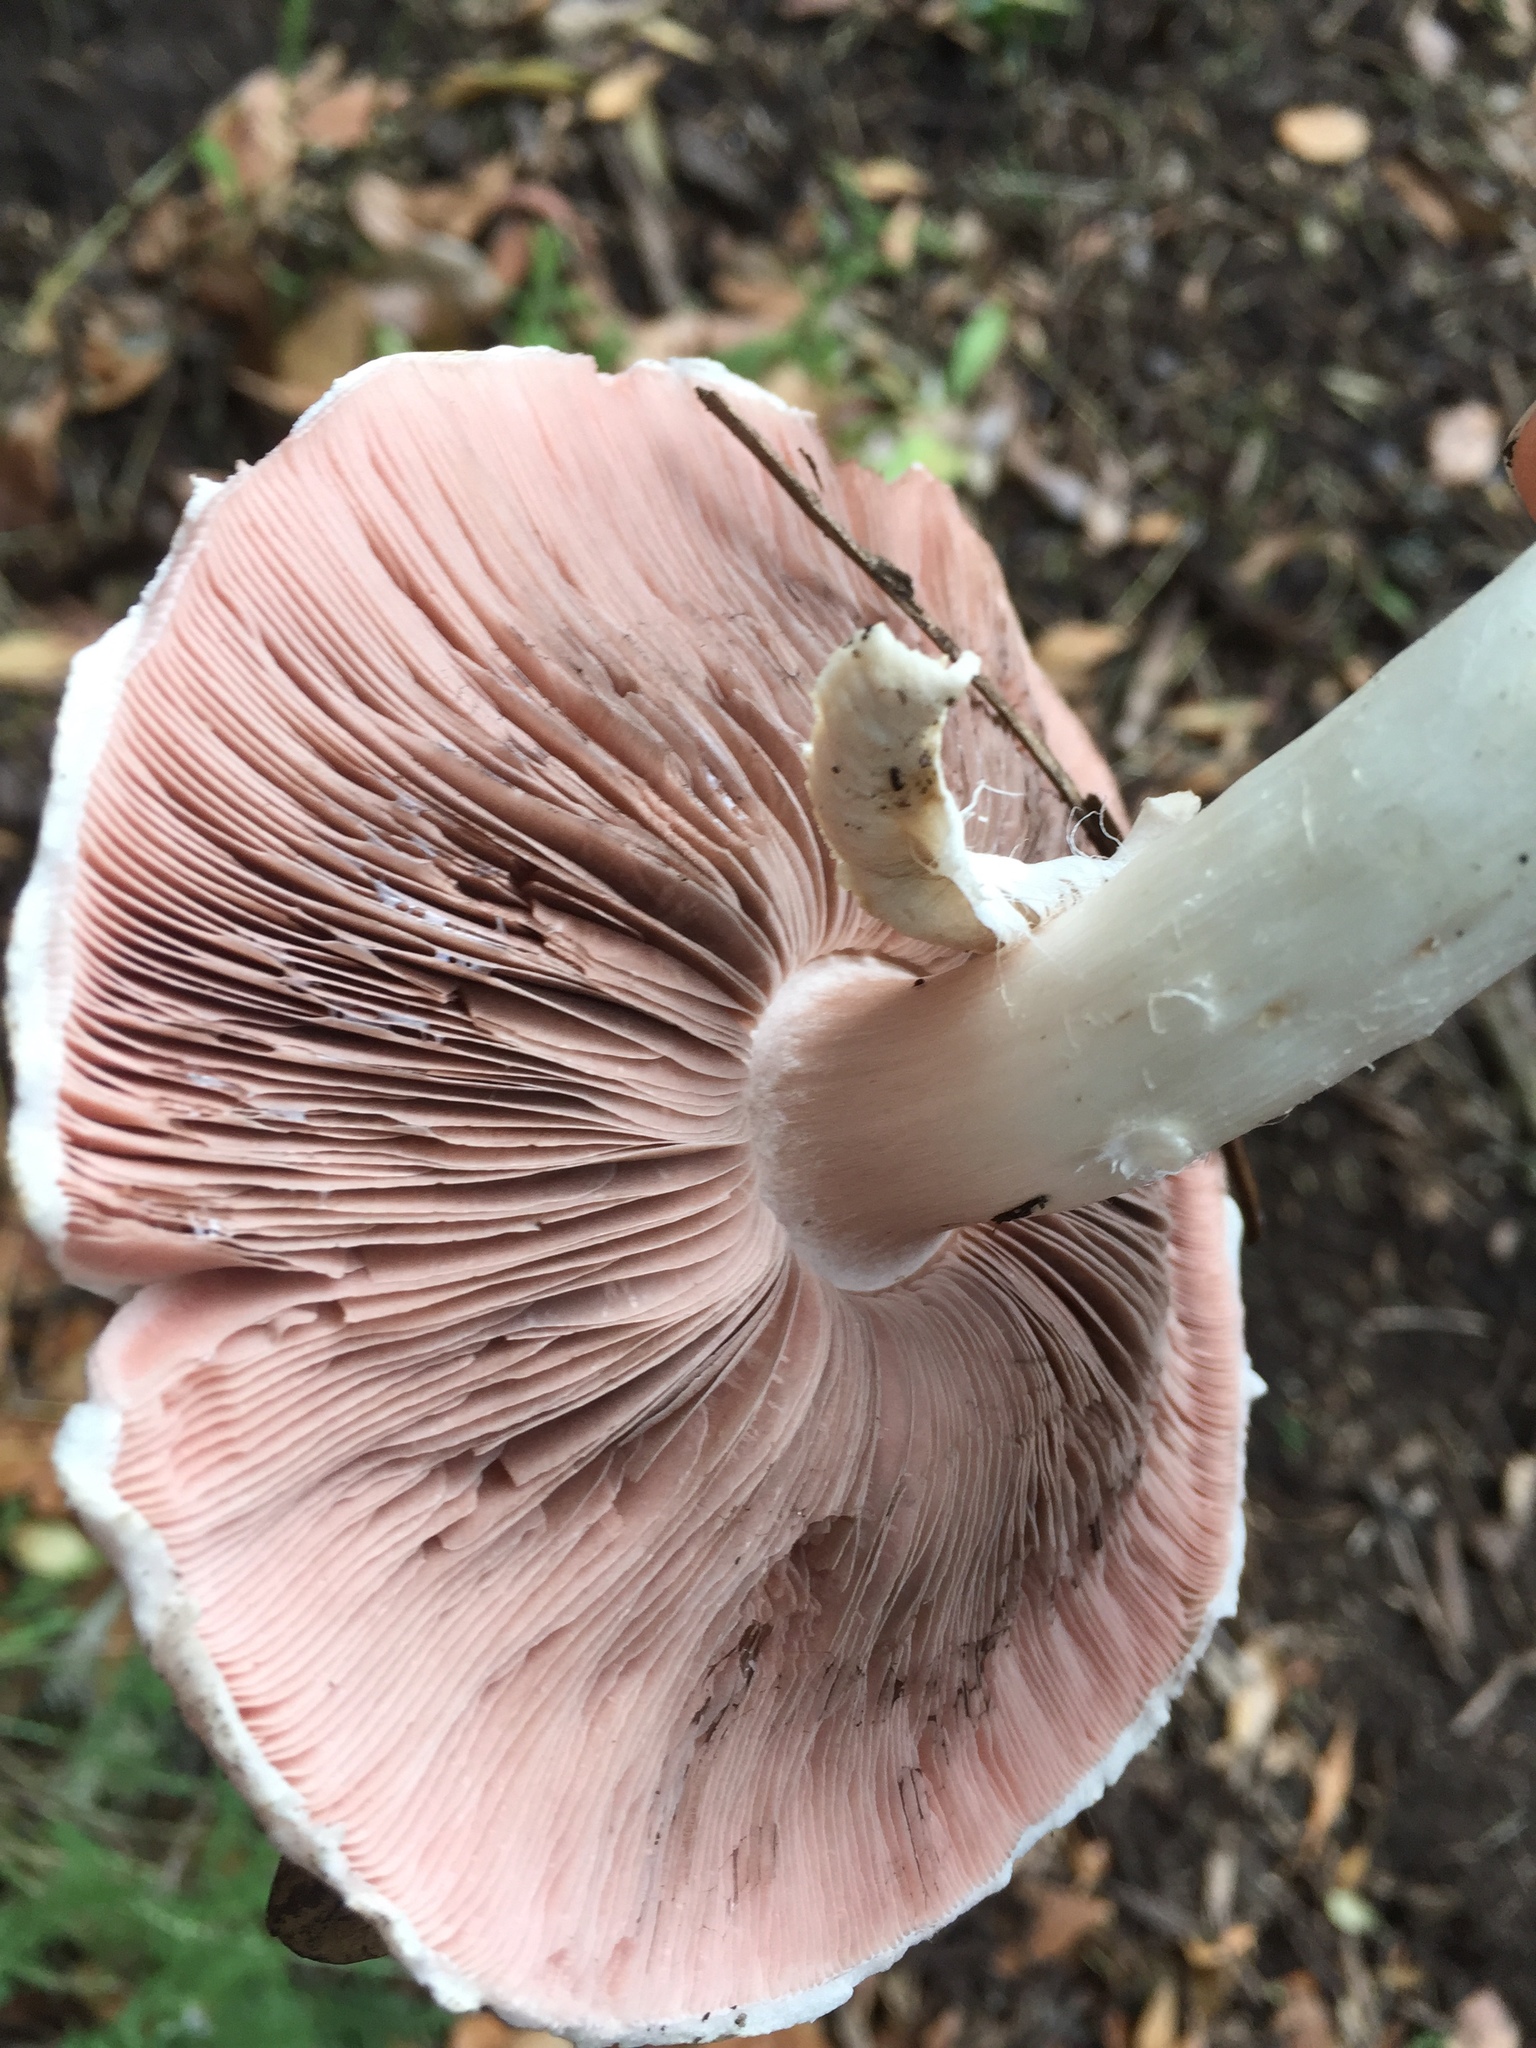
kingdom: Fungi
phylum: Basidiomycota
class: Agaricomycetes
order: Agaricales
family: Agaricaceae
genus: Agaricus
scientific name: Agaricus californicus
